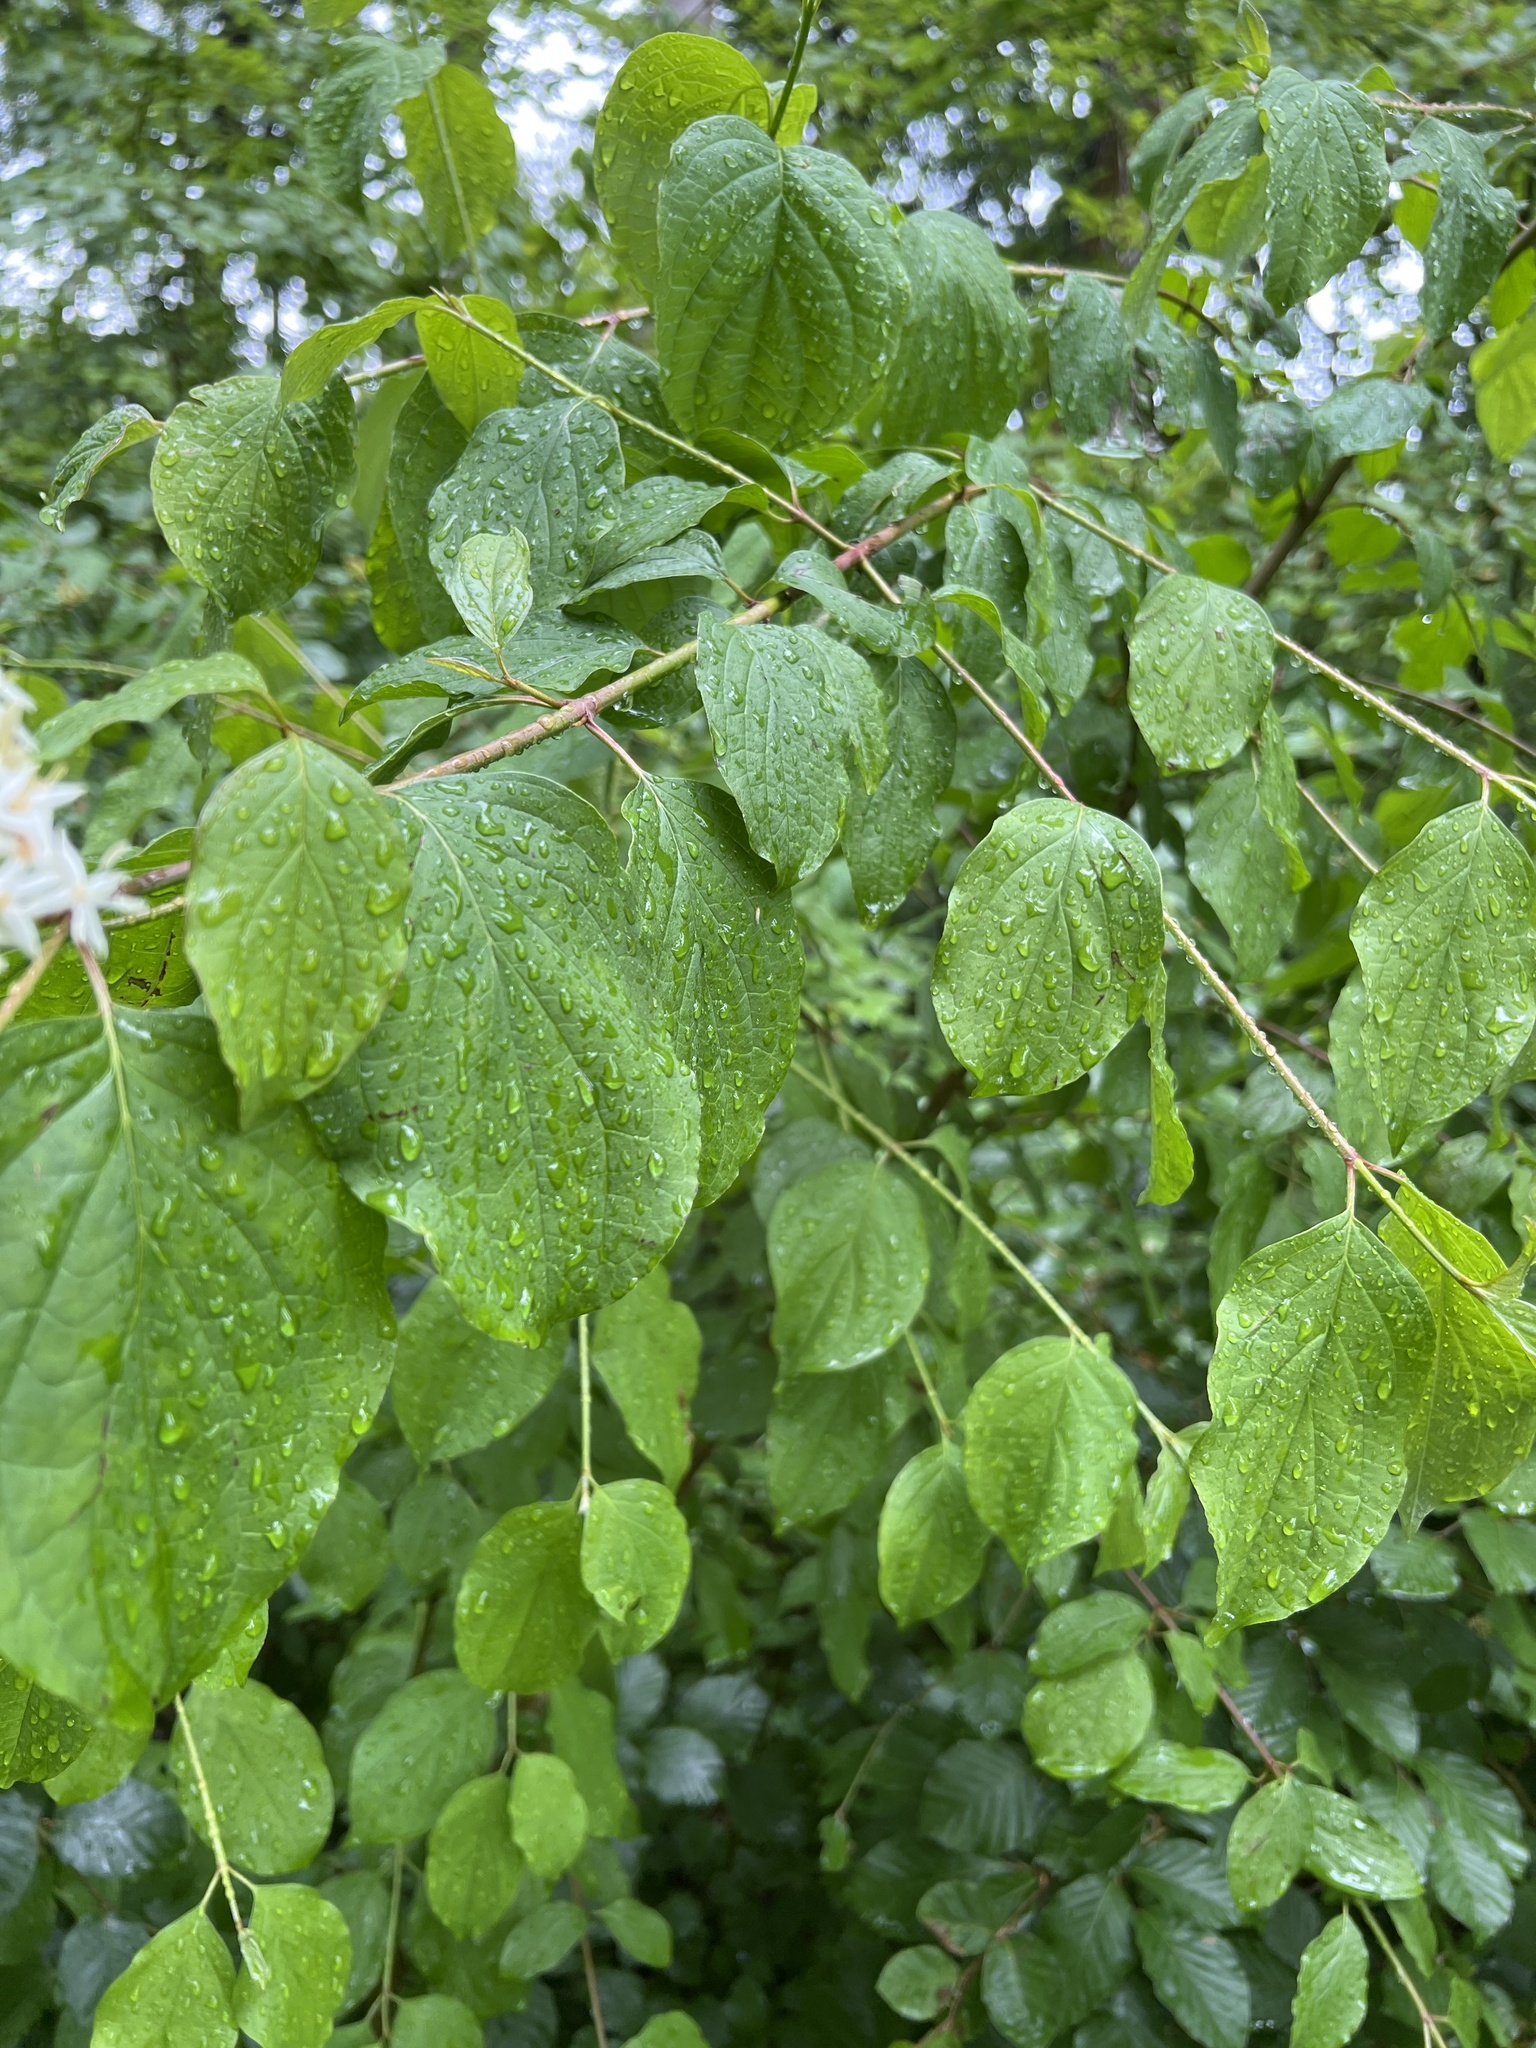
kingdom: Plantae
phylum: Tracheophyta
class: Magnoliopsida
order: Cornales
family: Cornaceae
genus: Cornus
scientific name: Cornus sanguinea
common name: Dogwood
